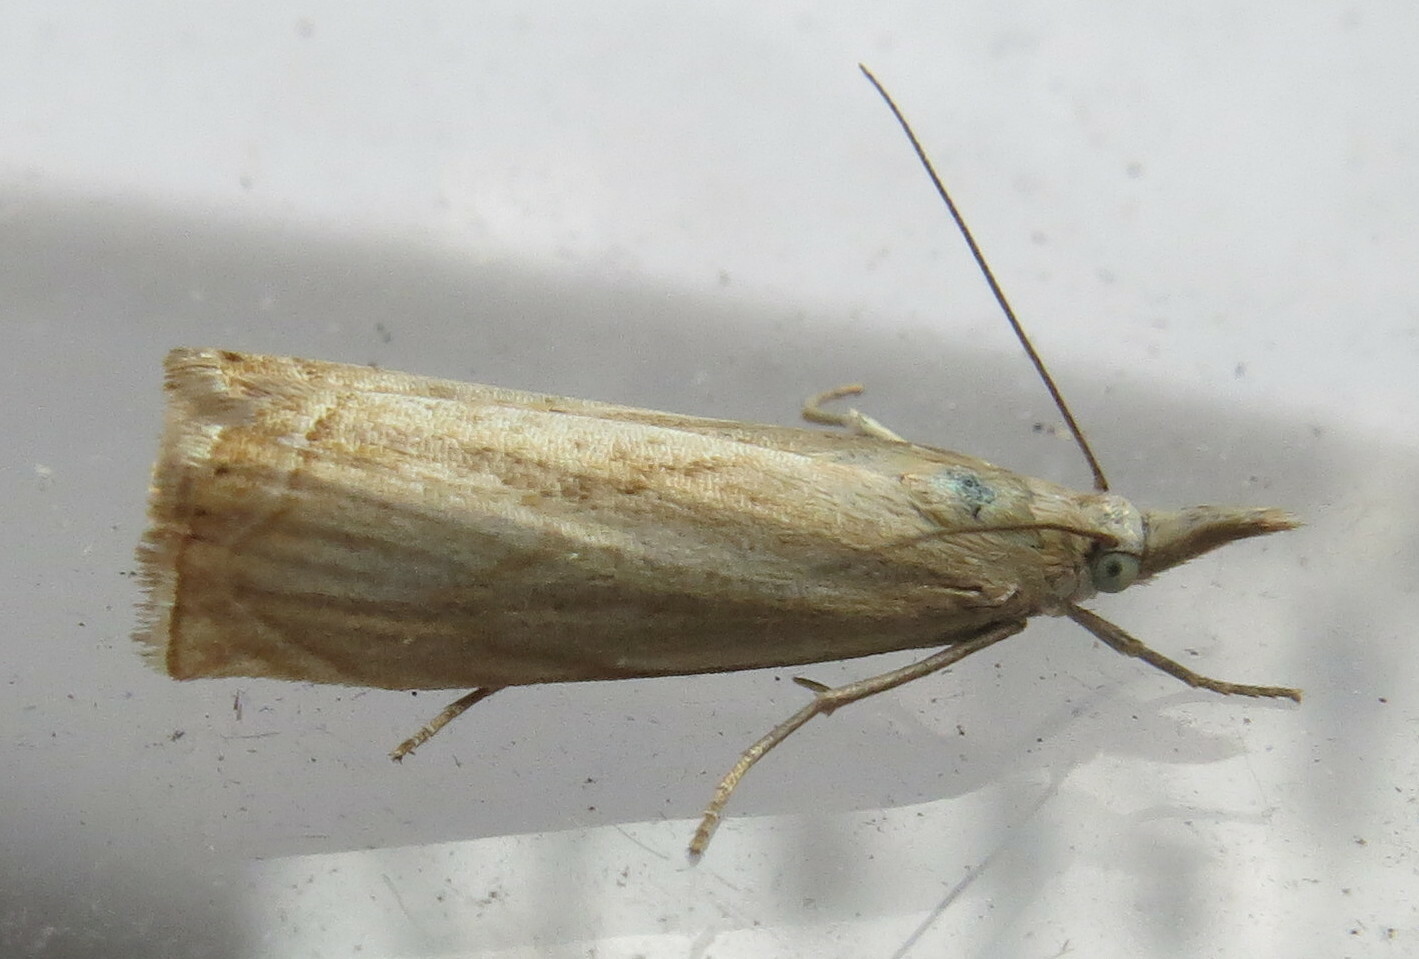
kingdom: Animalia
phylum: Arthropoda
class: Insecta
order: Lepidoptera
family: Crambidae
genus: Chrysoteuchia
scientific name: Chrysoteuchia culmella
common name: Garden grass-veneer
